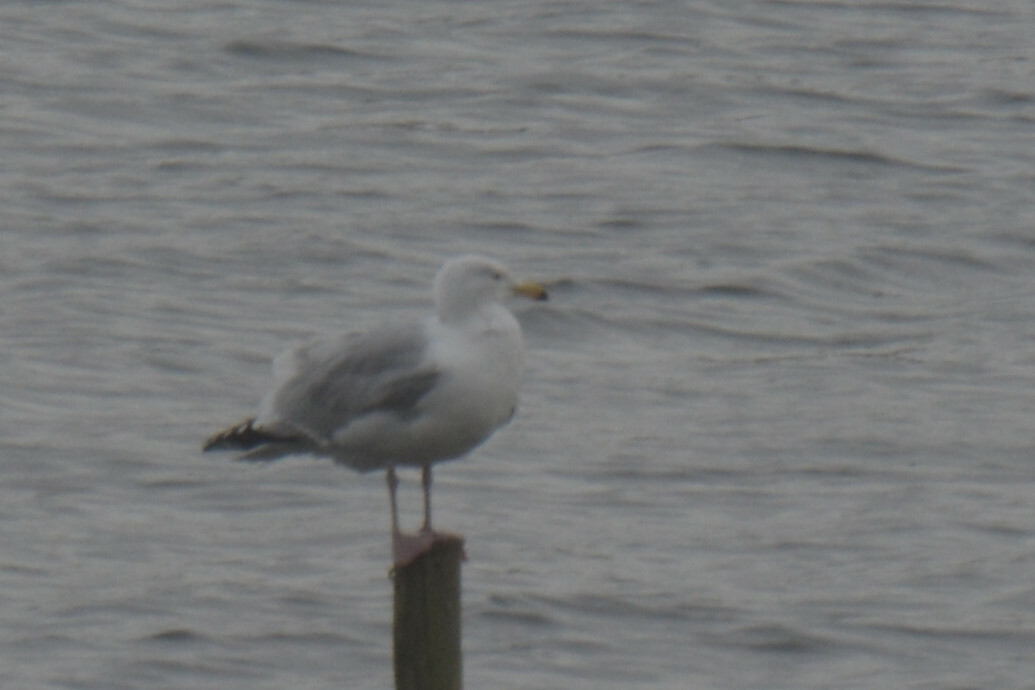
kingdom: Animalia
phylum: Chordata
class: Aves
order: Charadriiformes
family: Laridae
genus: Larus
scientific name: Larus argentatus
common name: Herring gull
